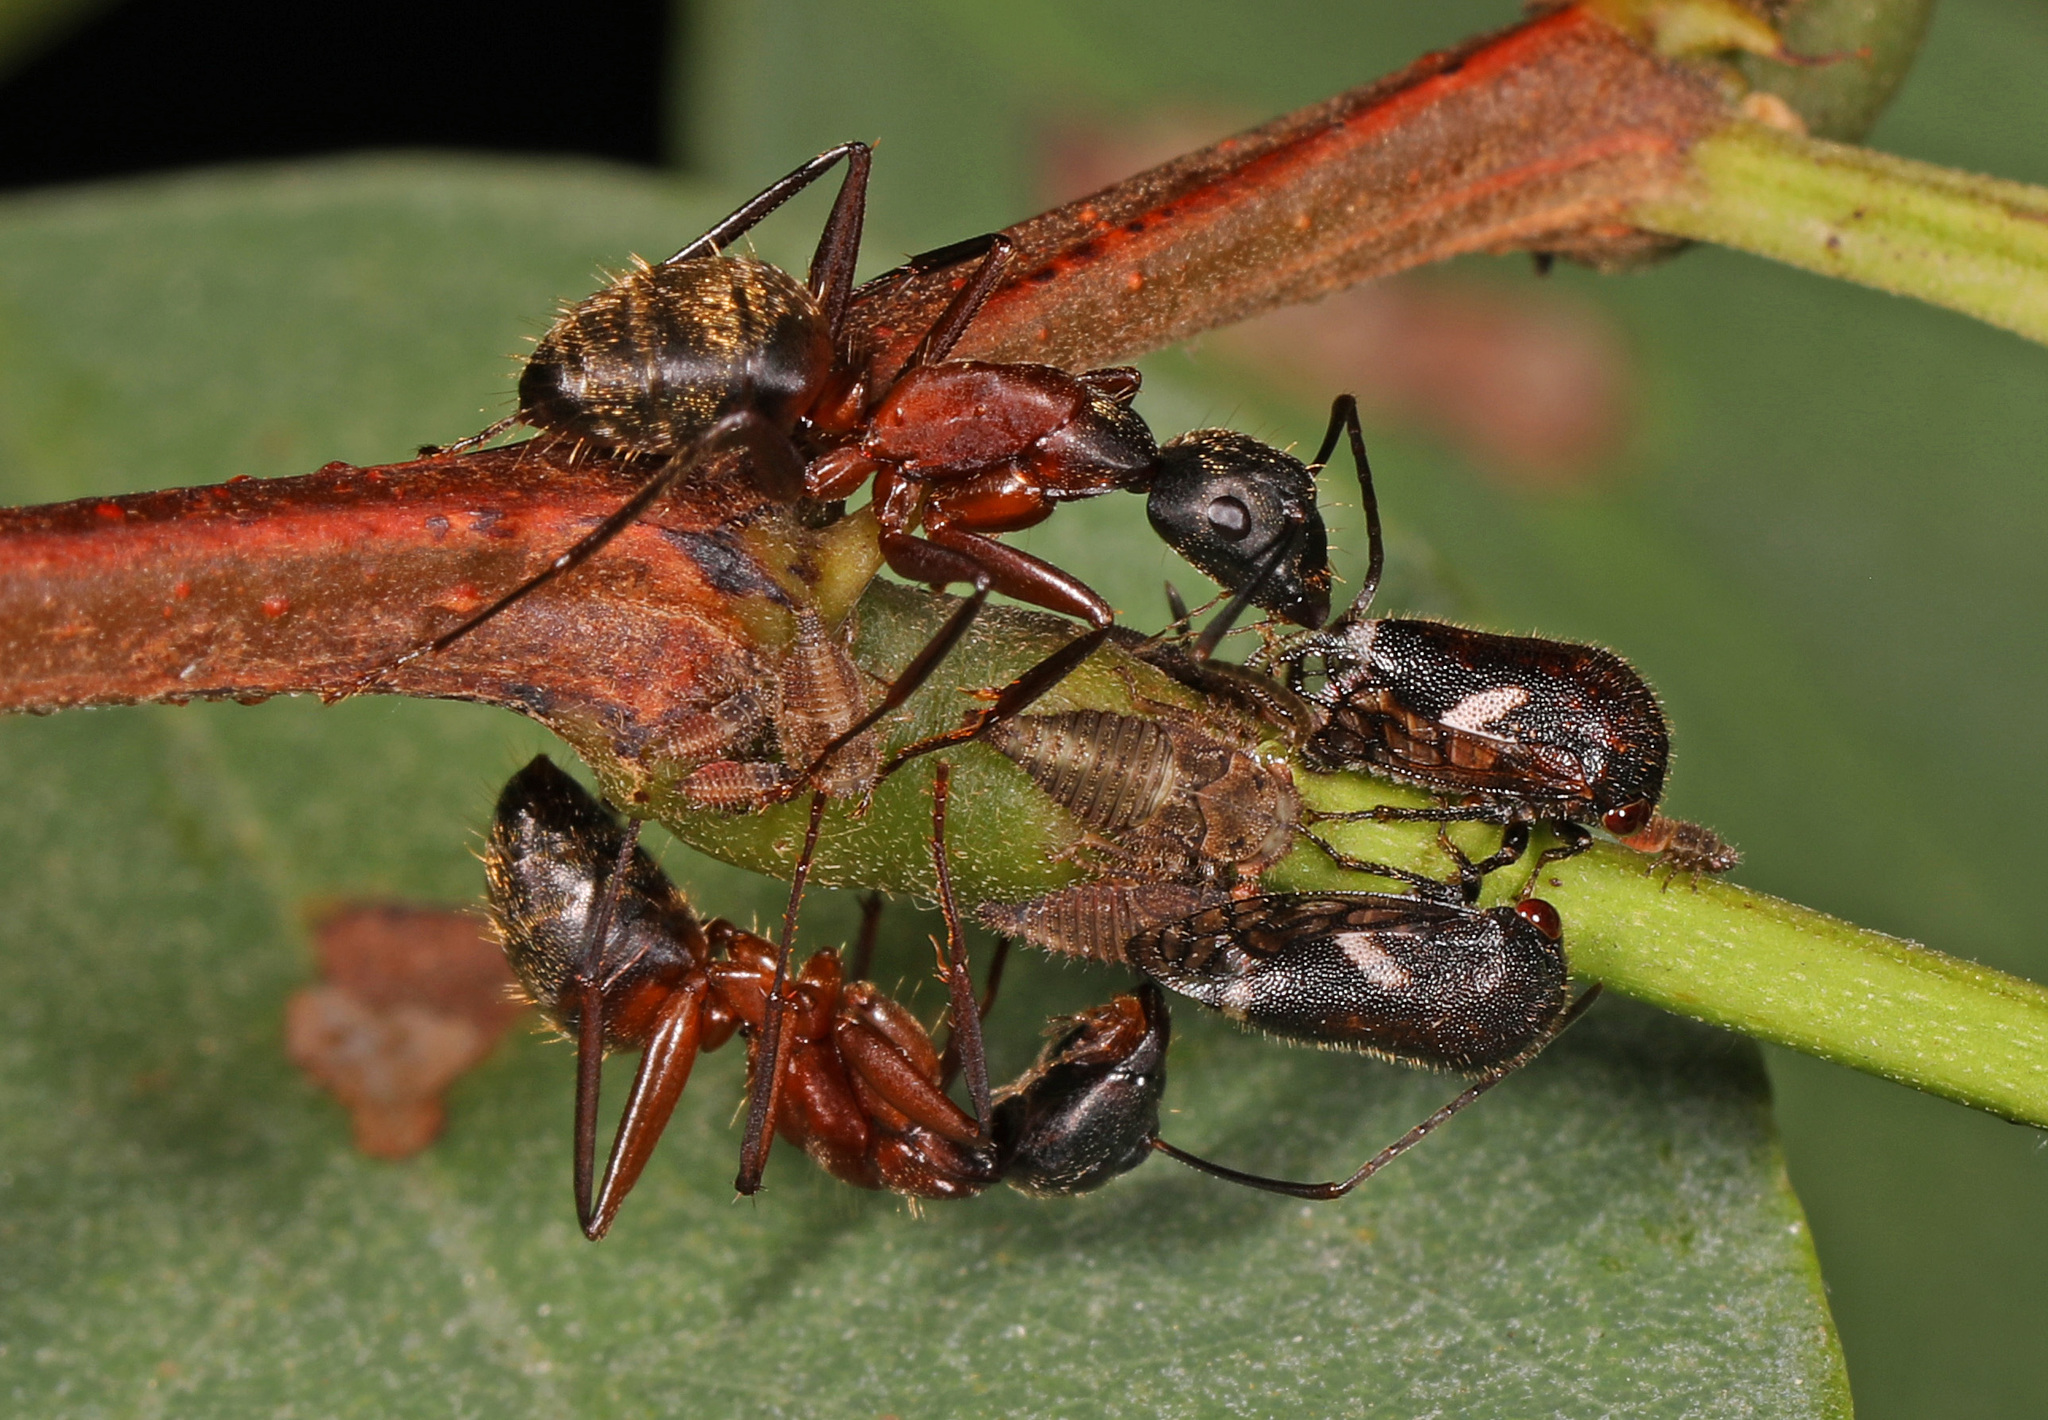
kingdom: Animalia
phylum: Arthropoda
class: Insecta
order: Hymenoptera
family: Formicidae
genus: Camponotus
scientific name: Camponotus chromaiodes
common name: Red carpenter ant
